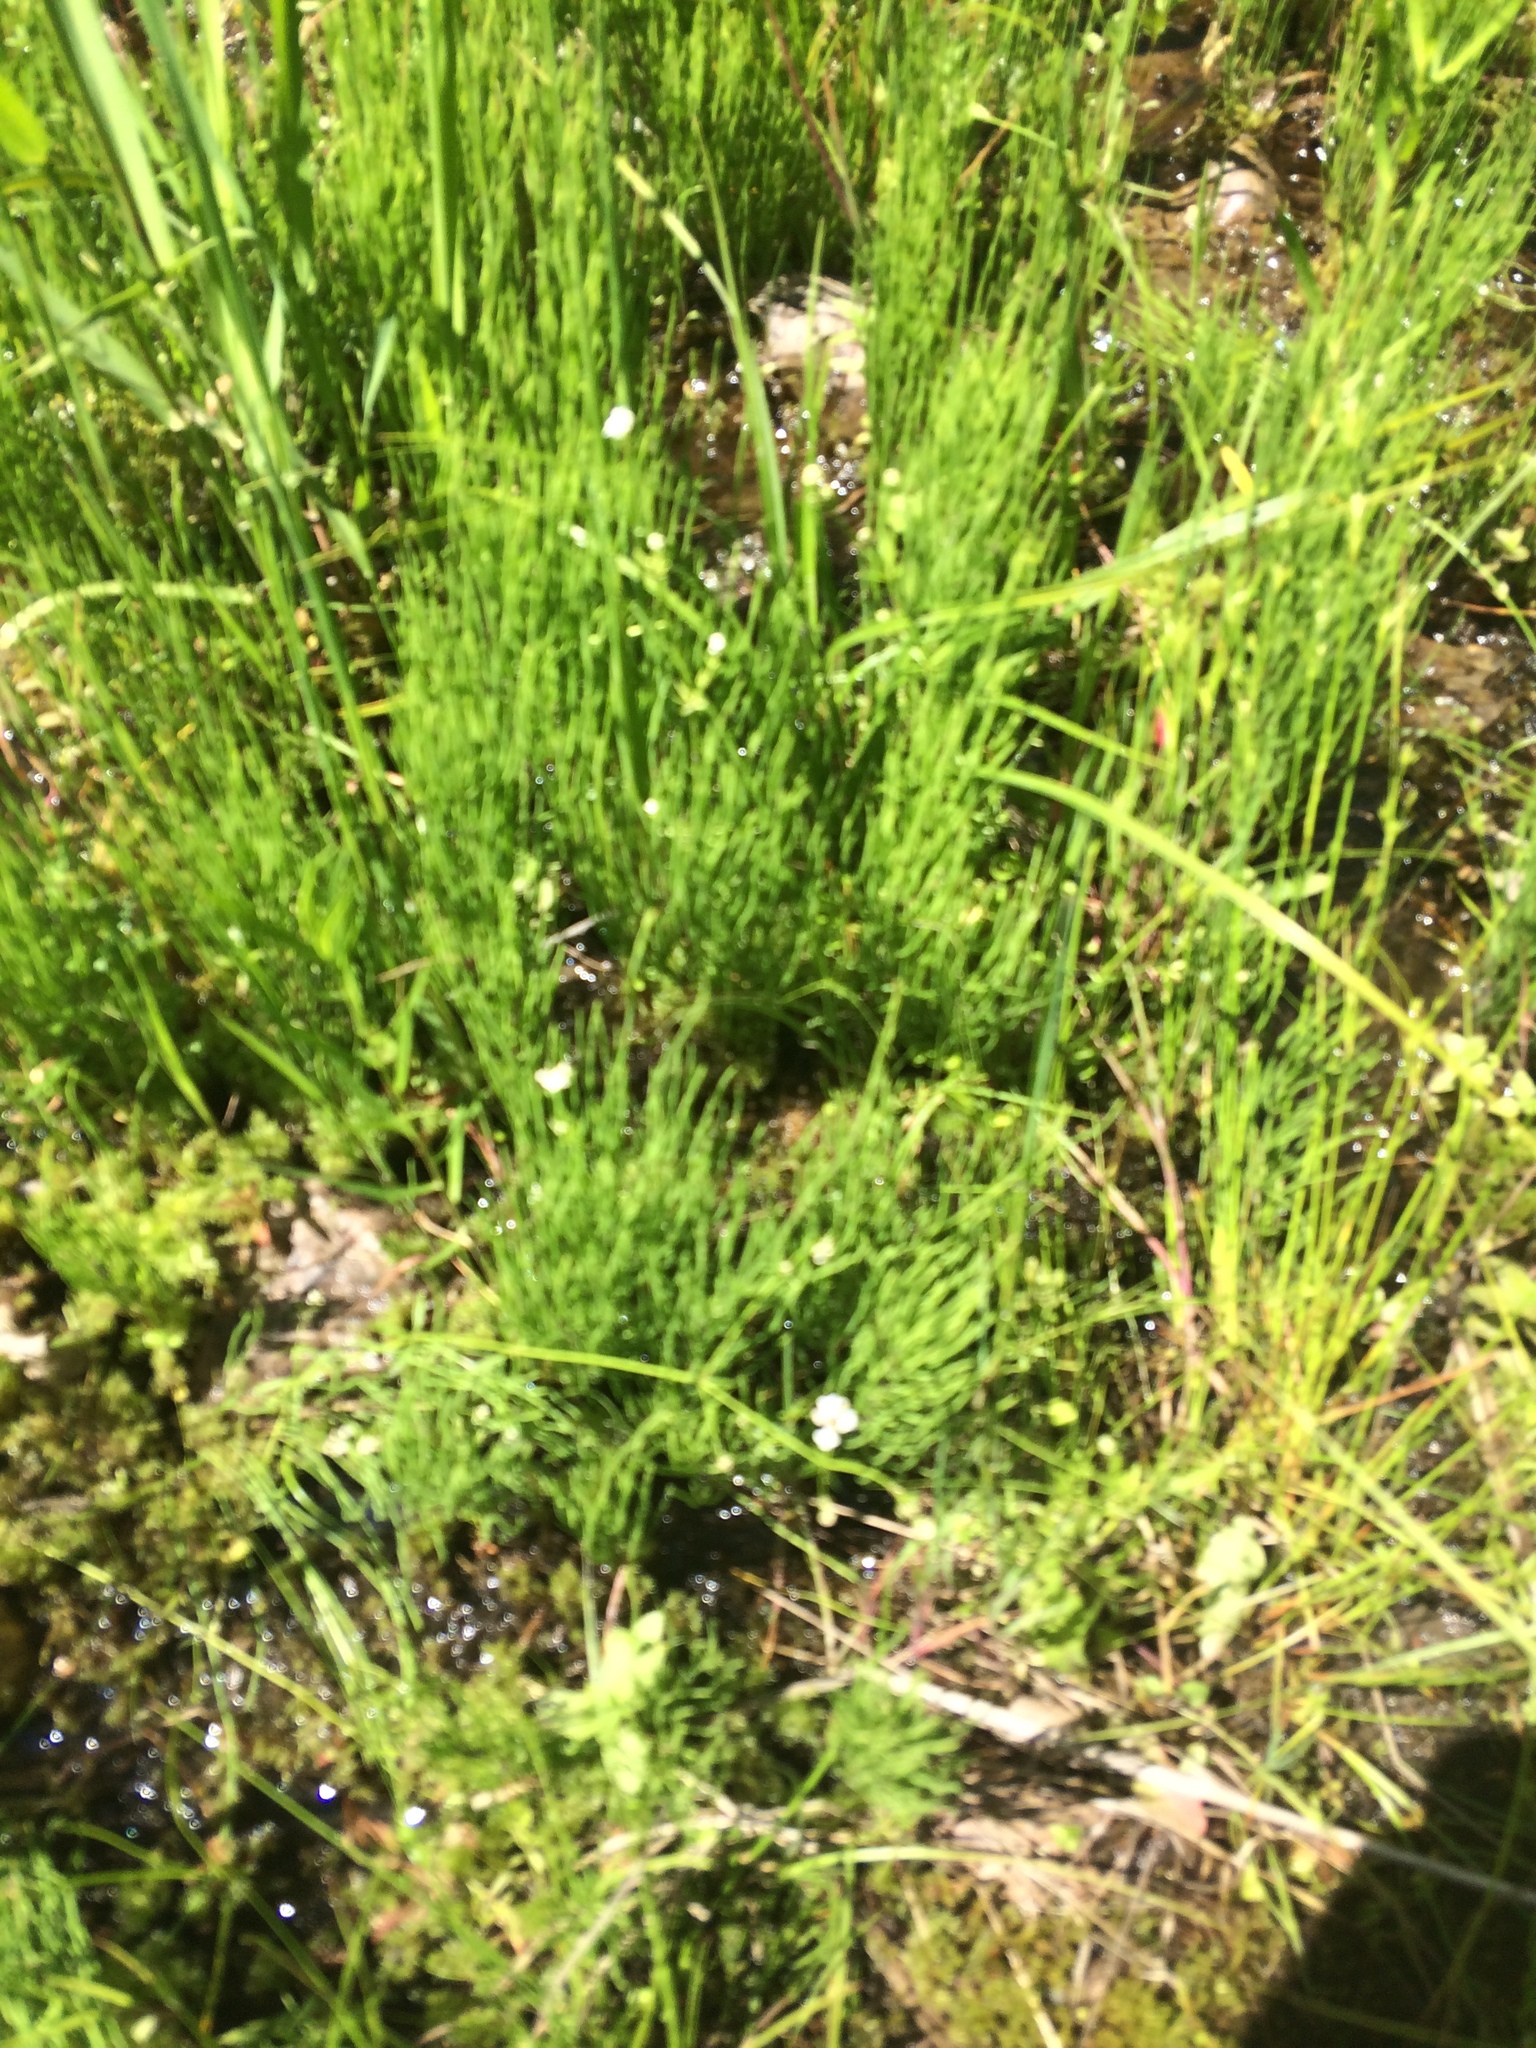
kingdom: Plantae
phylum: Tracheophyta
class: Polypodiopsida
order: Equisetales
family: Equisetaceae
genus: Equisetum
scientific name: Equisetum arvense
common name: Field horsetail
